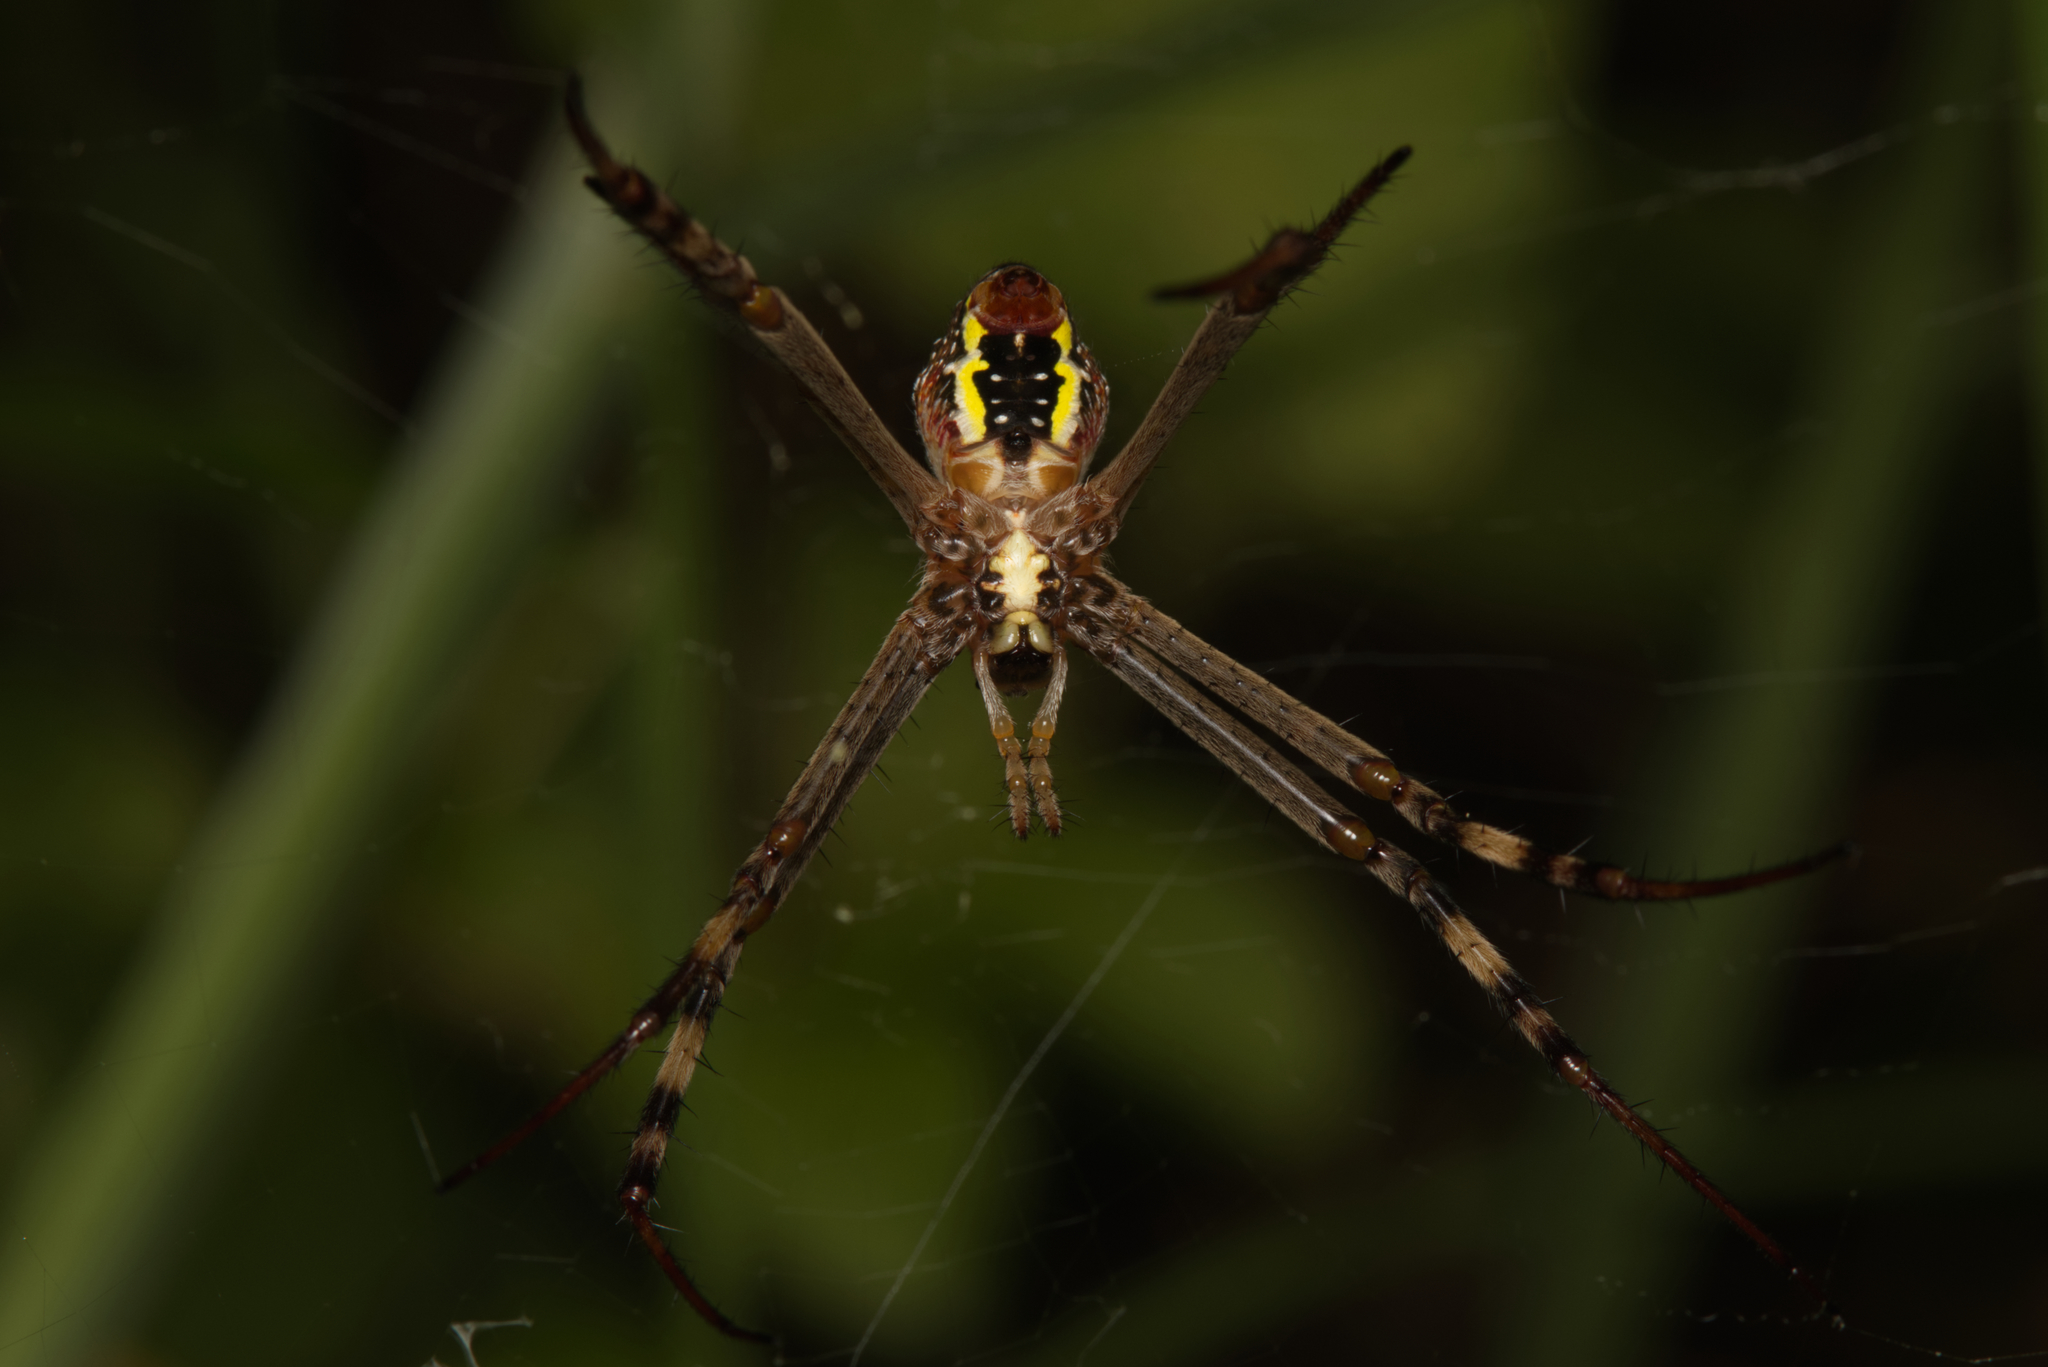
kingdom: Animalia
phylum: Arthropoda
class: Arachnida
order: Araneae
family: Araneidae
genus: Argiope
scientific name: Argiope keyserlingi
